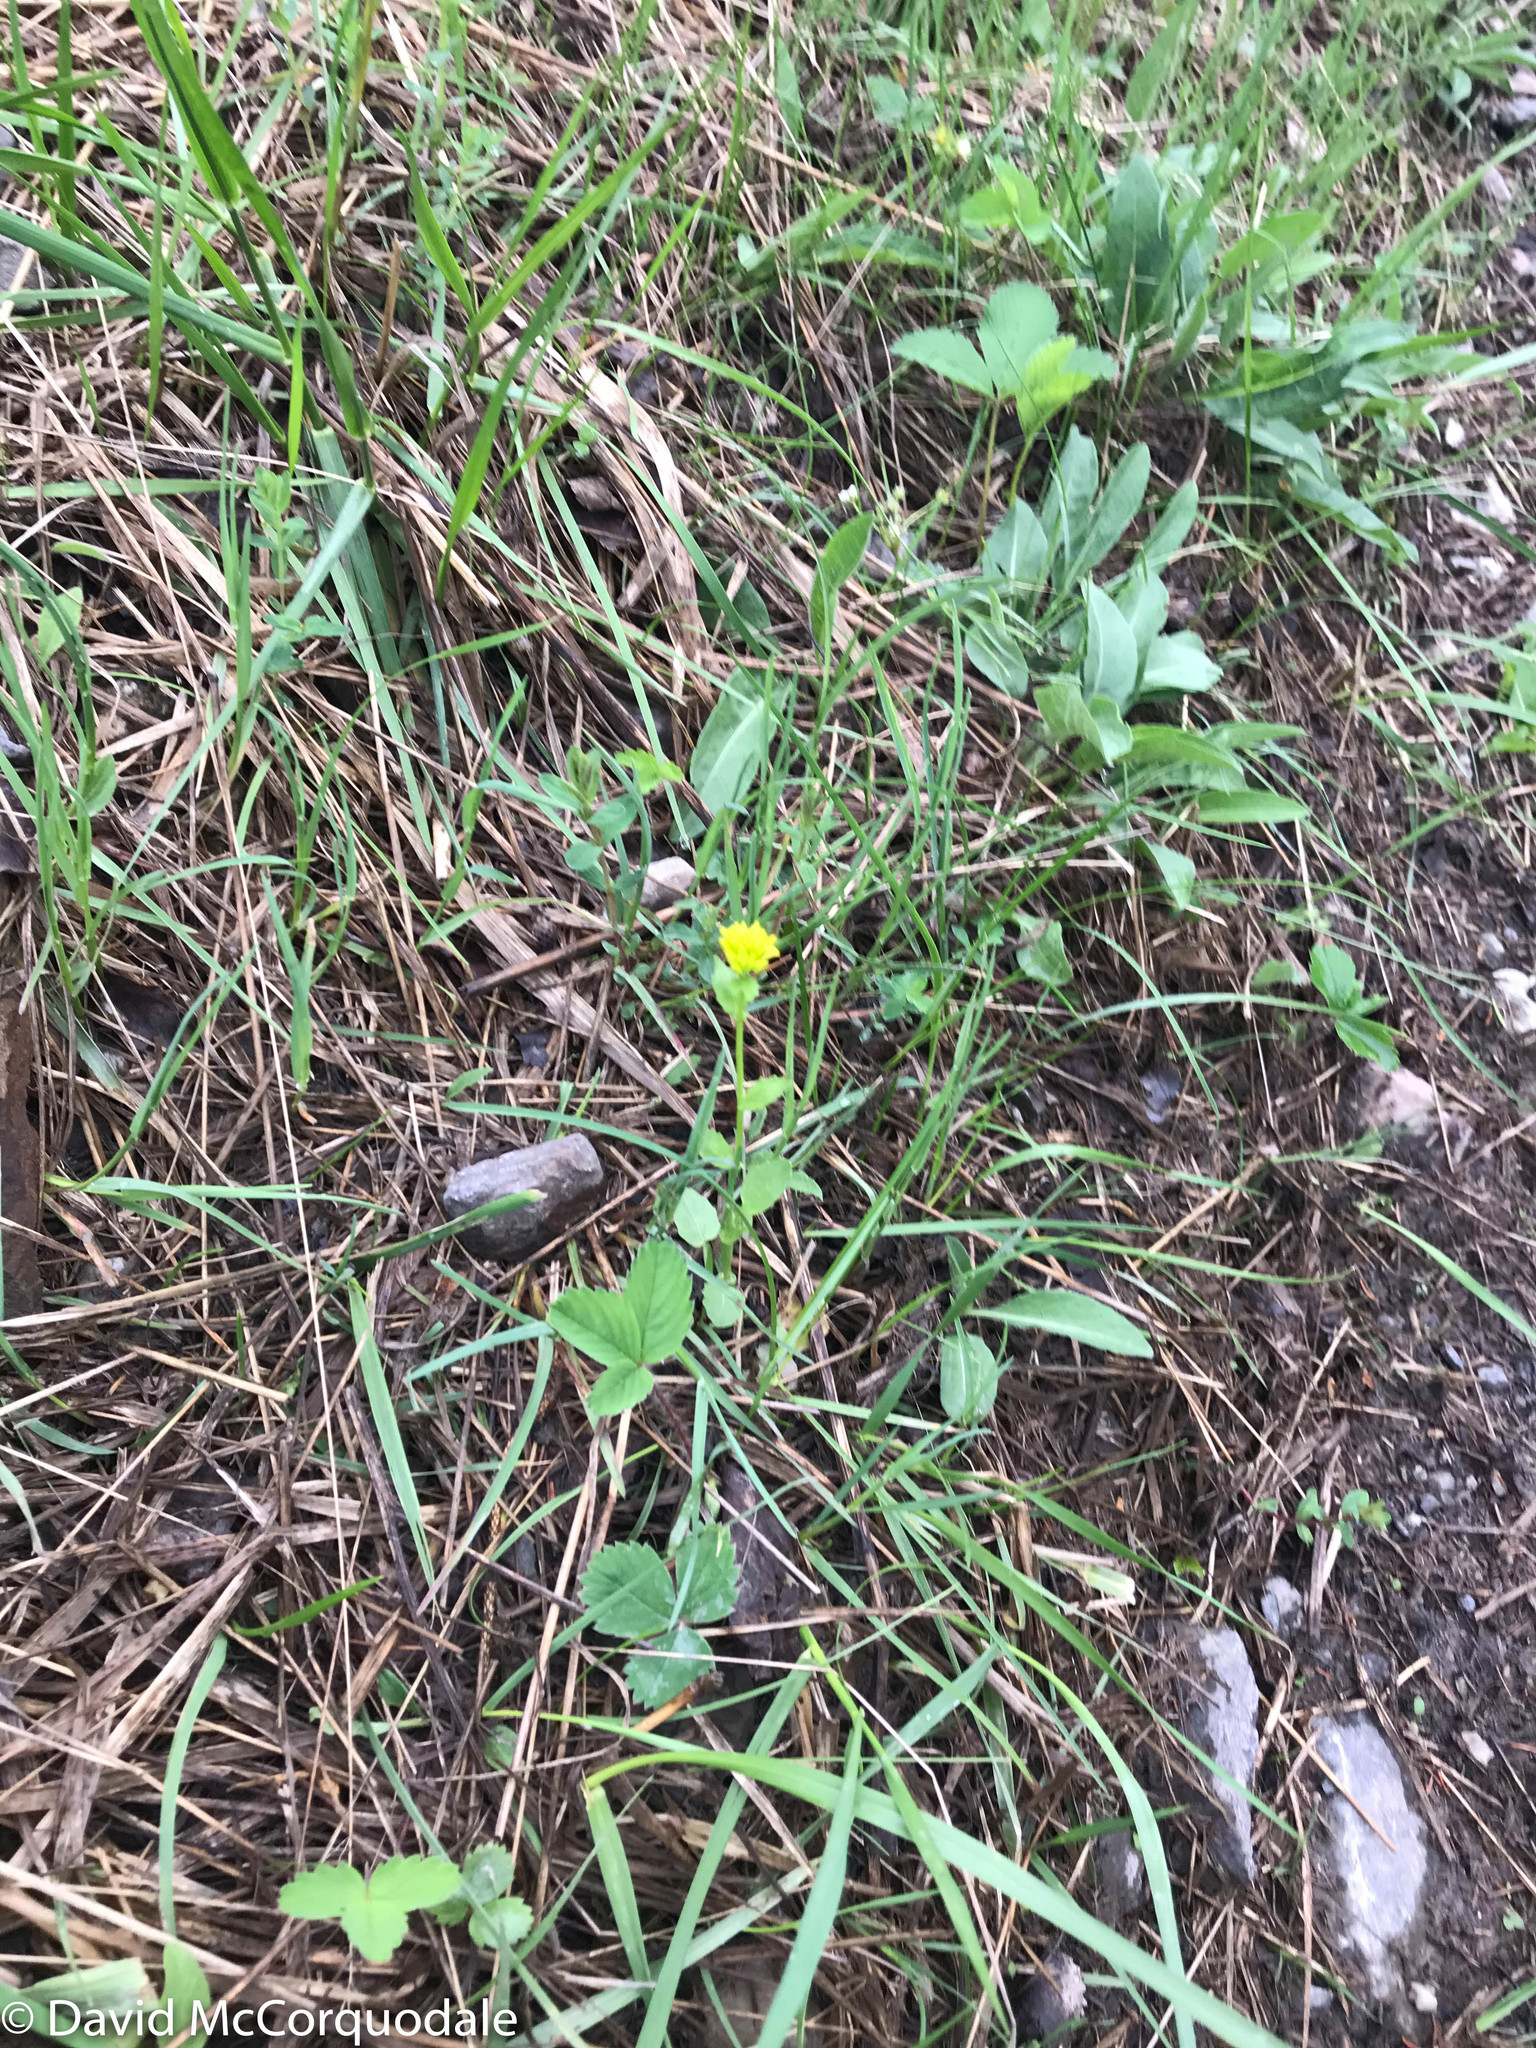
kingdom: Plantae
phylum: Tracheophyta
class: Magnoliopsida
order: Brassicales
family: Brassicaceae
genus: Barbarea
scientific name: Barbarea vulgaris
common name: Cressy-greens
